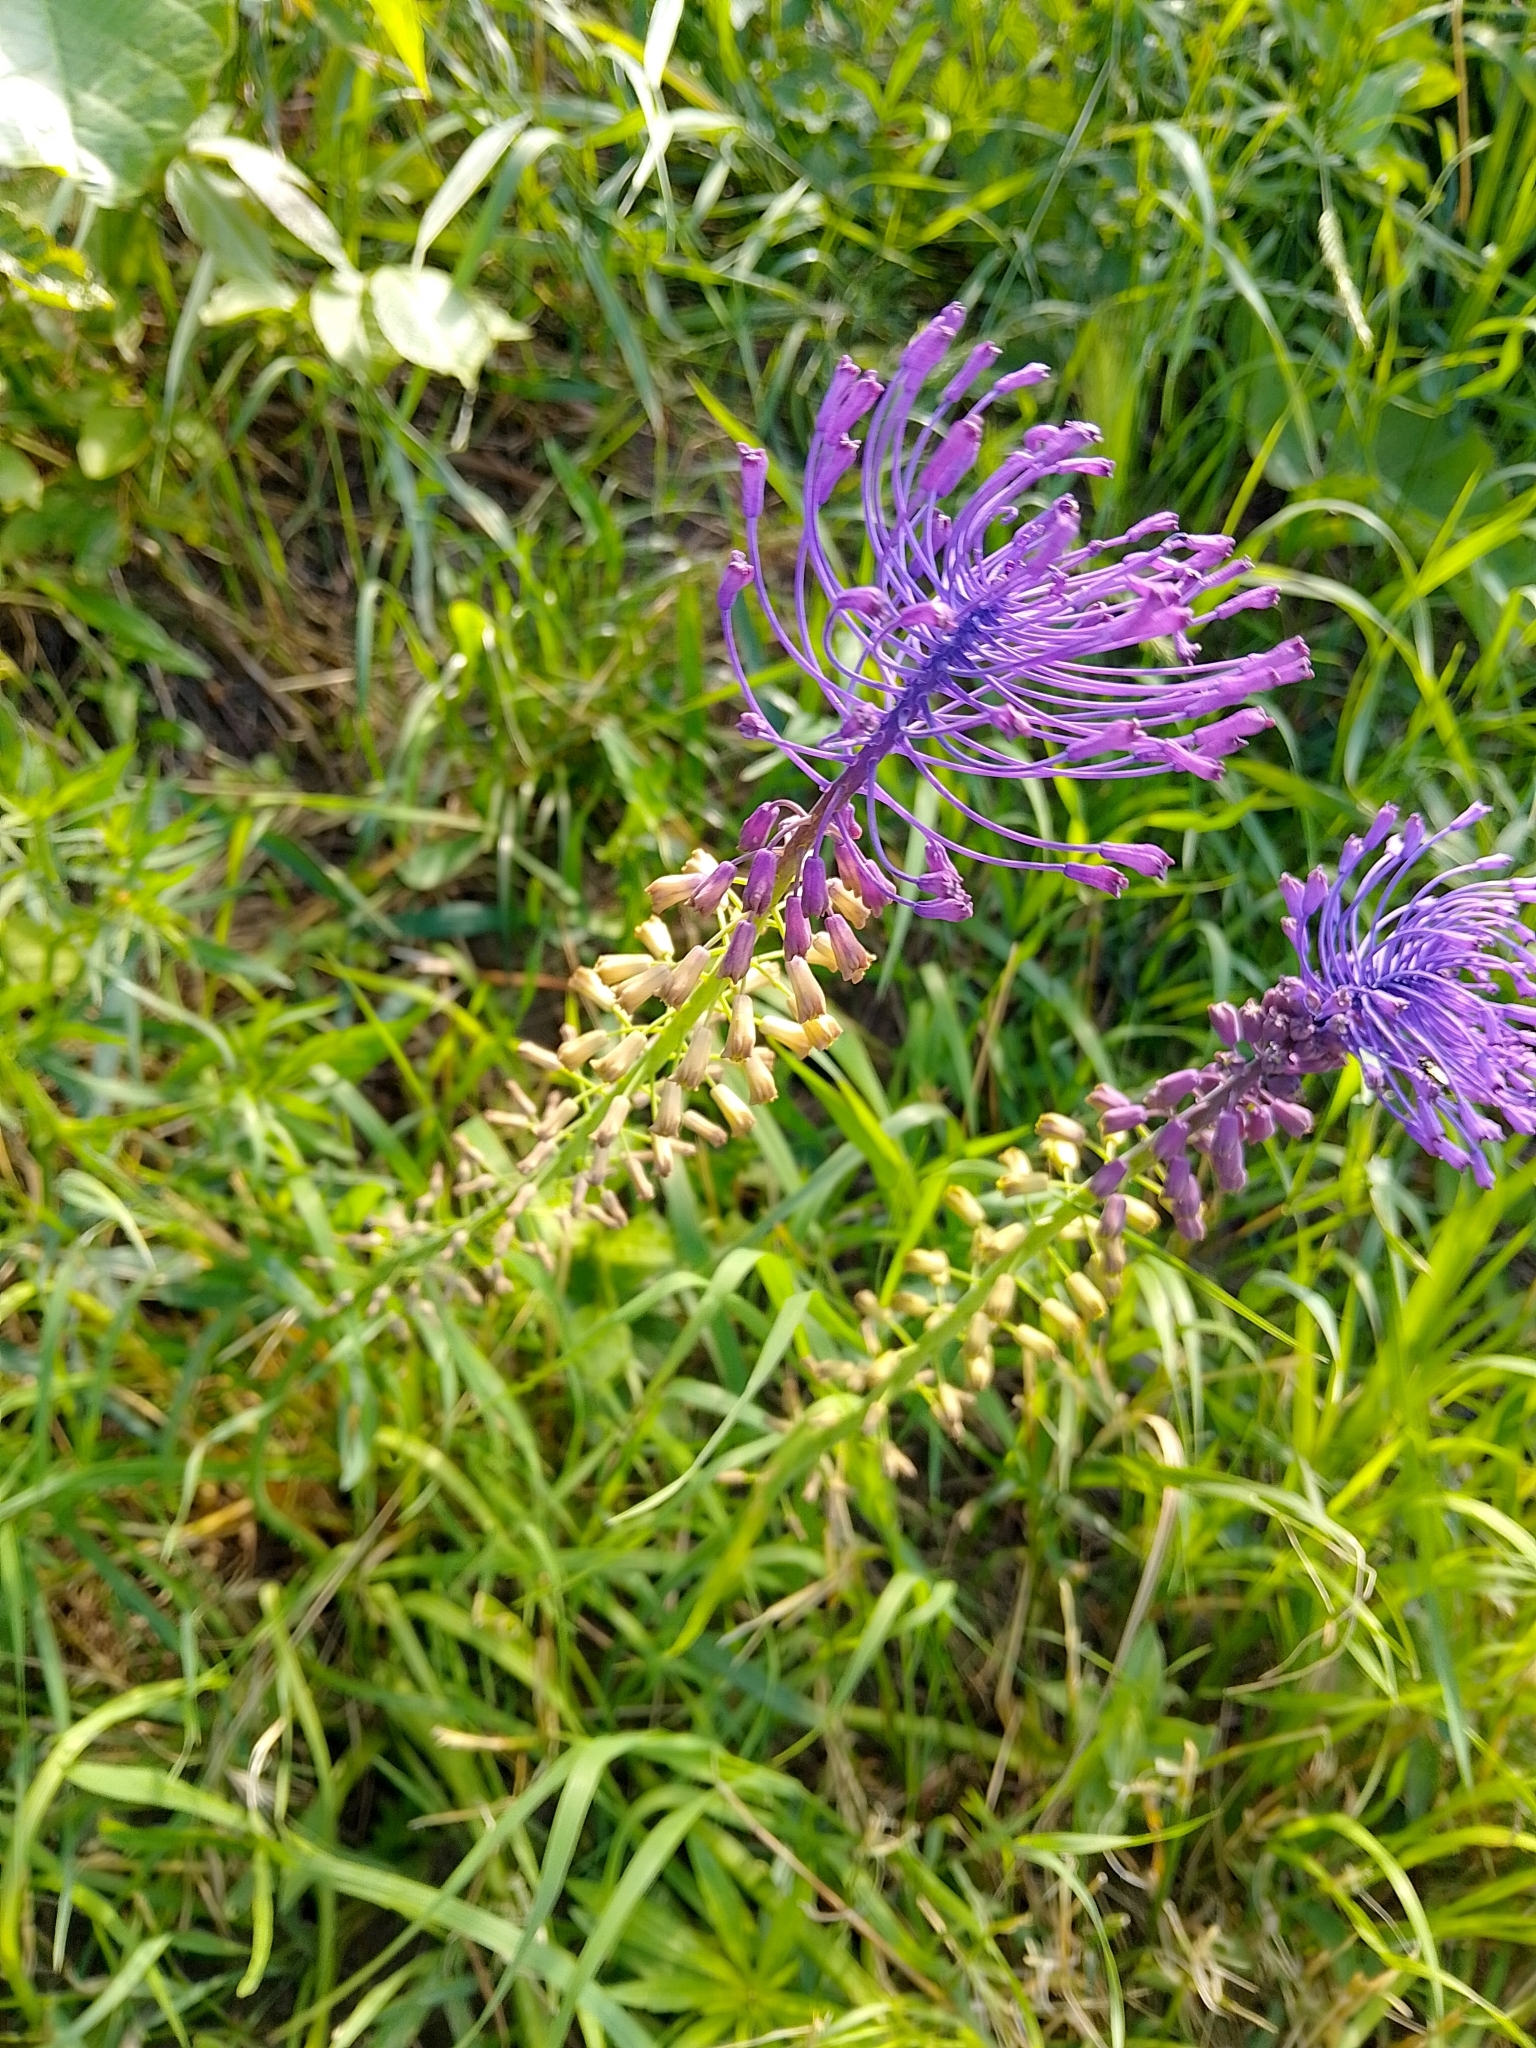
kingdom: Plantae
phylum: Tracheophyta
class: Liliopsida
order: Asparagales
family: Asparagaceae
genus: Muscari
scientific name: Muscari comosum
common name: Tassel hyacinth
